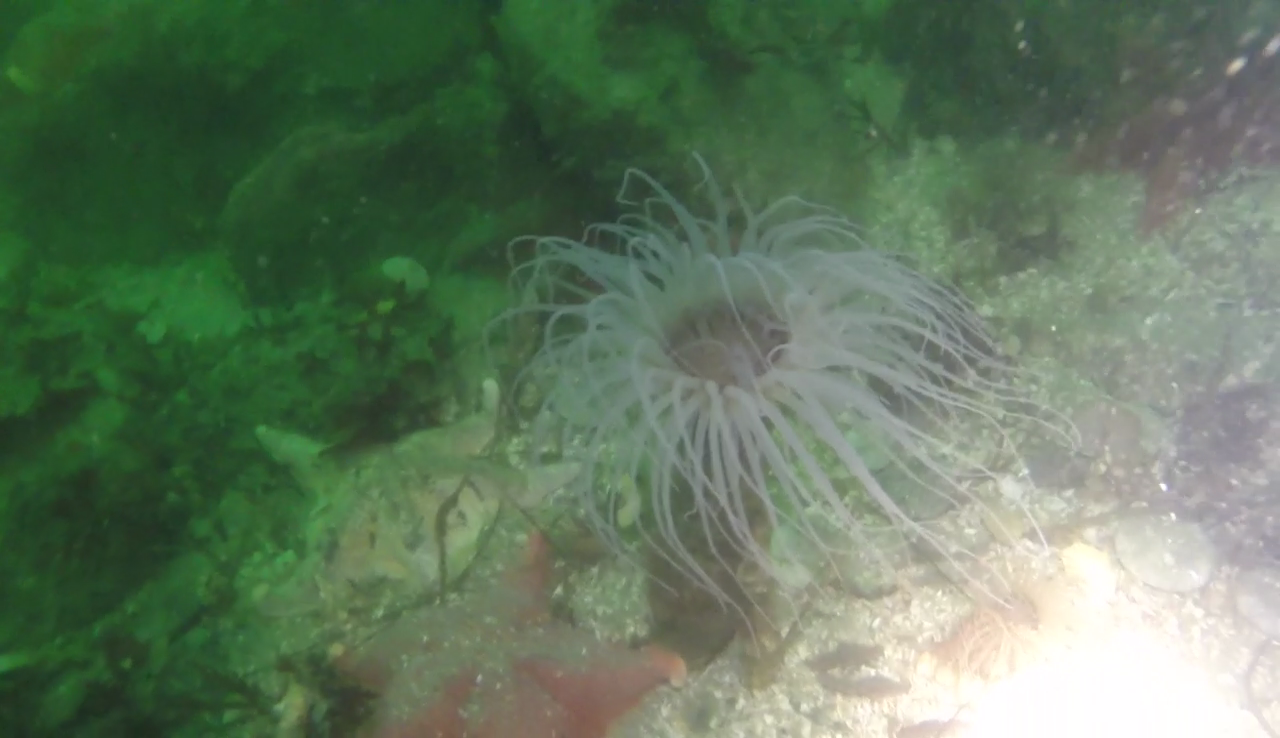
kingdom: Animalia
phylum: Cnidaria
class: Anthozoa
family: Cerianthidae
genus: Pachycerianthus
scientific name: Pachycerianthus fimbriatus
